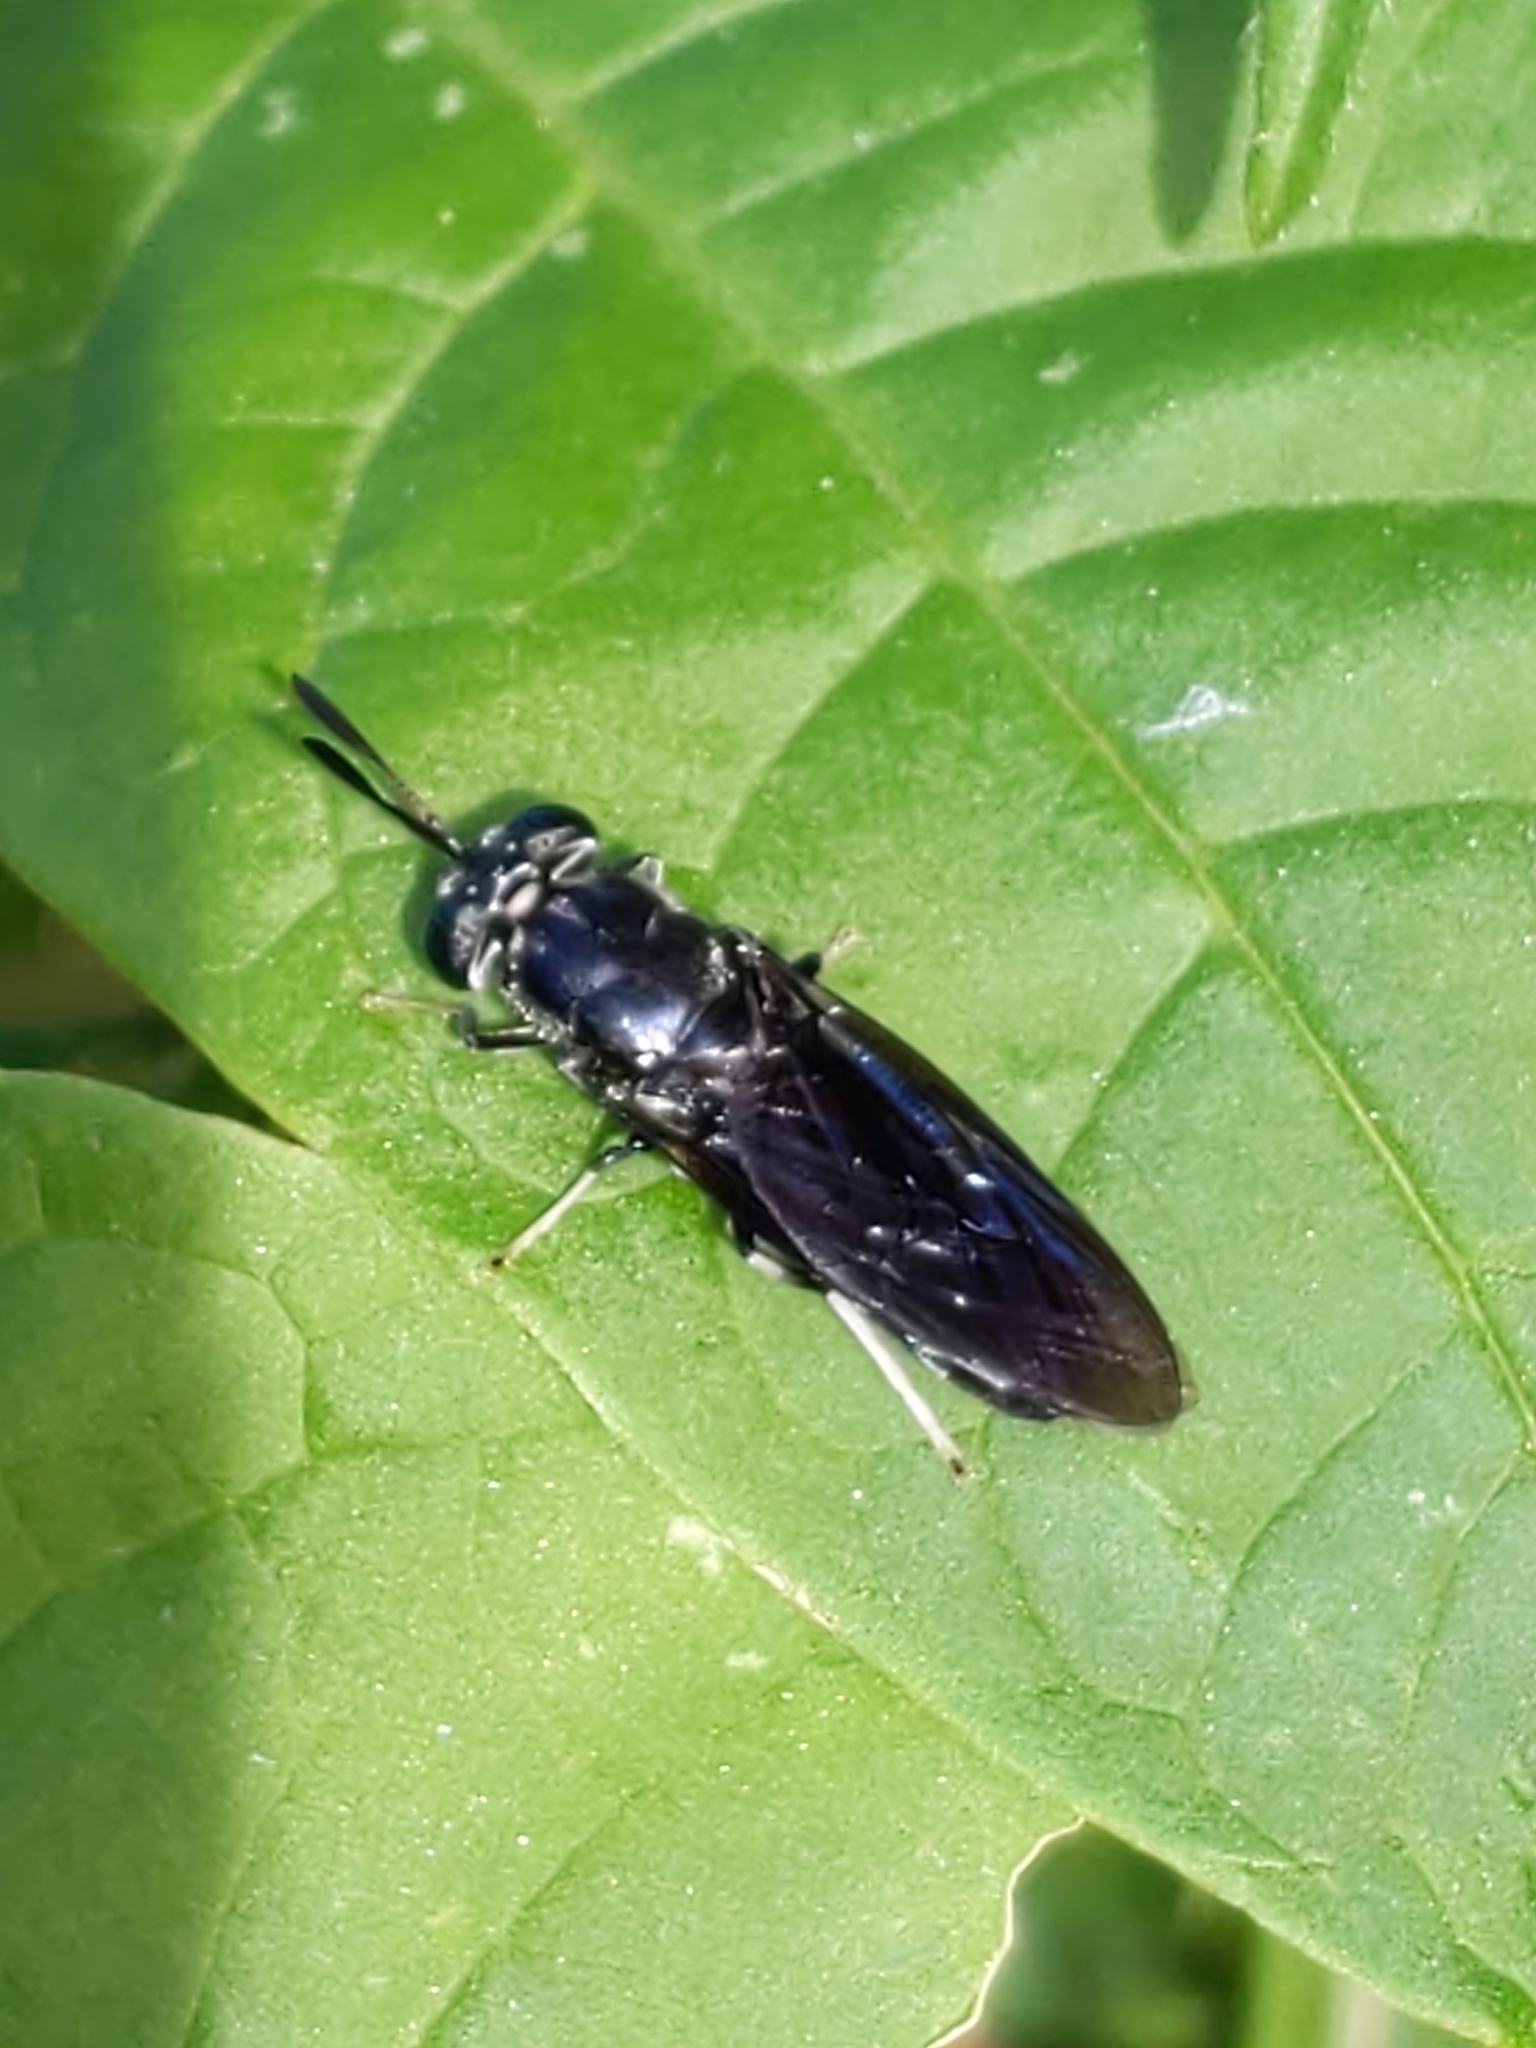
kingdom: Animalia
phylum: Arthropoda
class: Insecta
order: Diptera
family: Stratiomyidae
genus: Hermetia
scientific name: Hermetia illucens
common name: Black soldier fly
